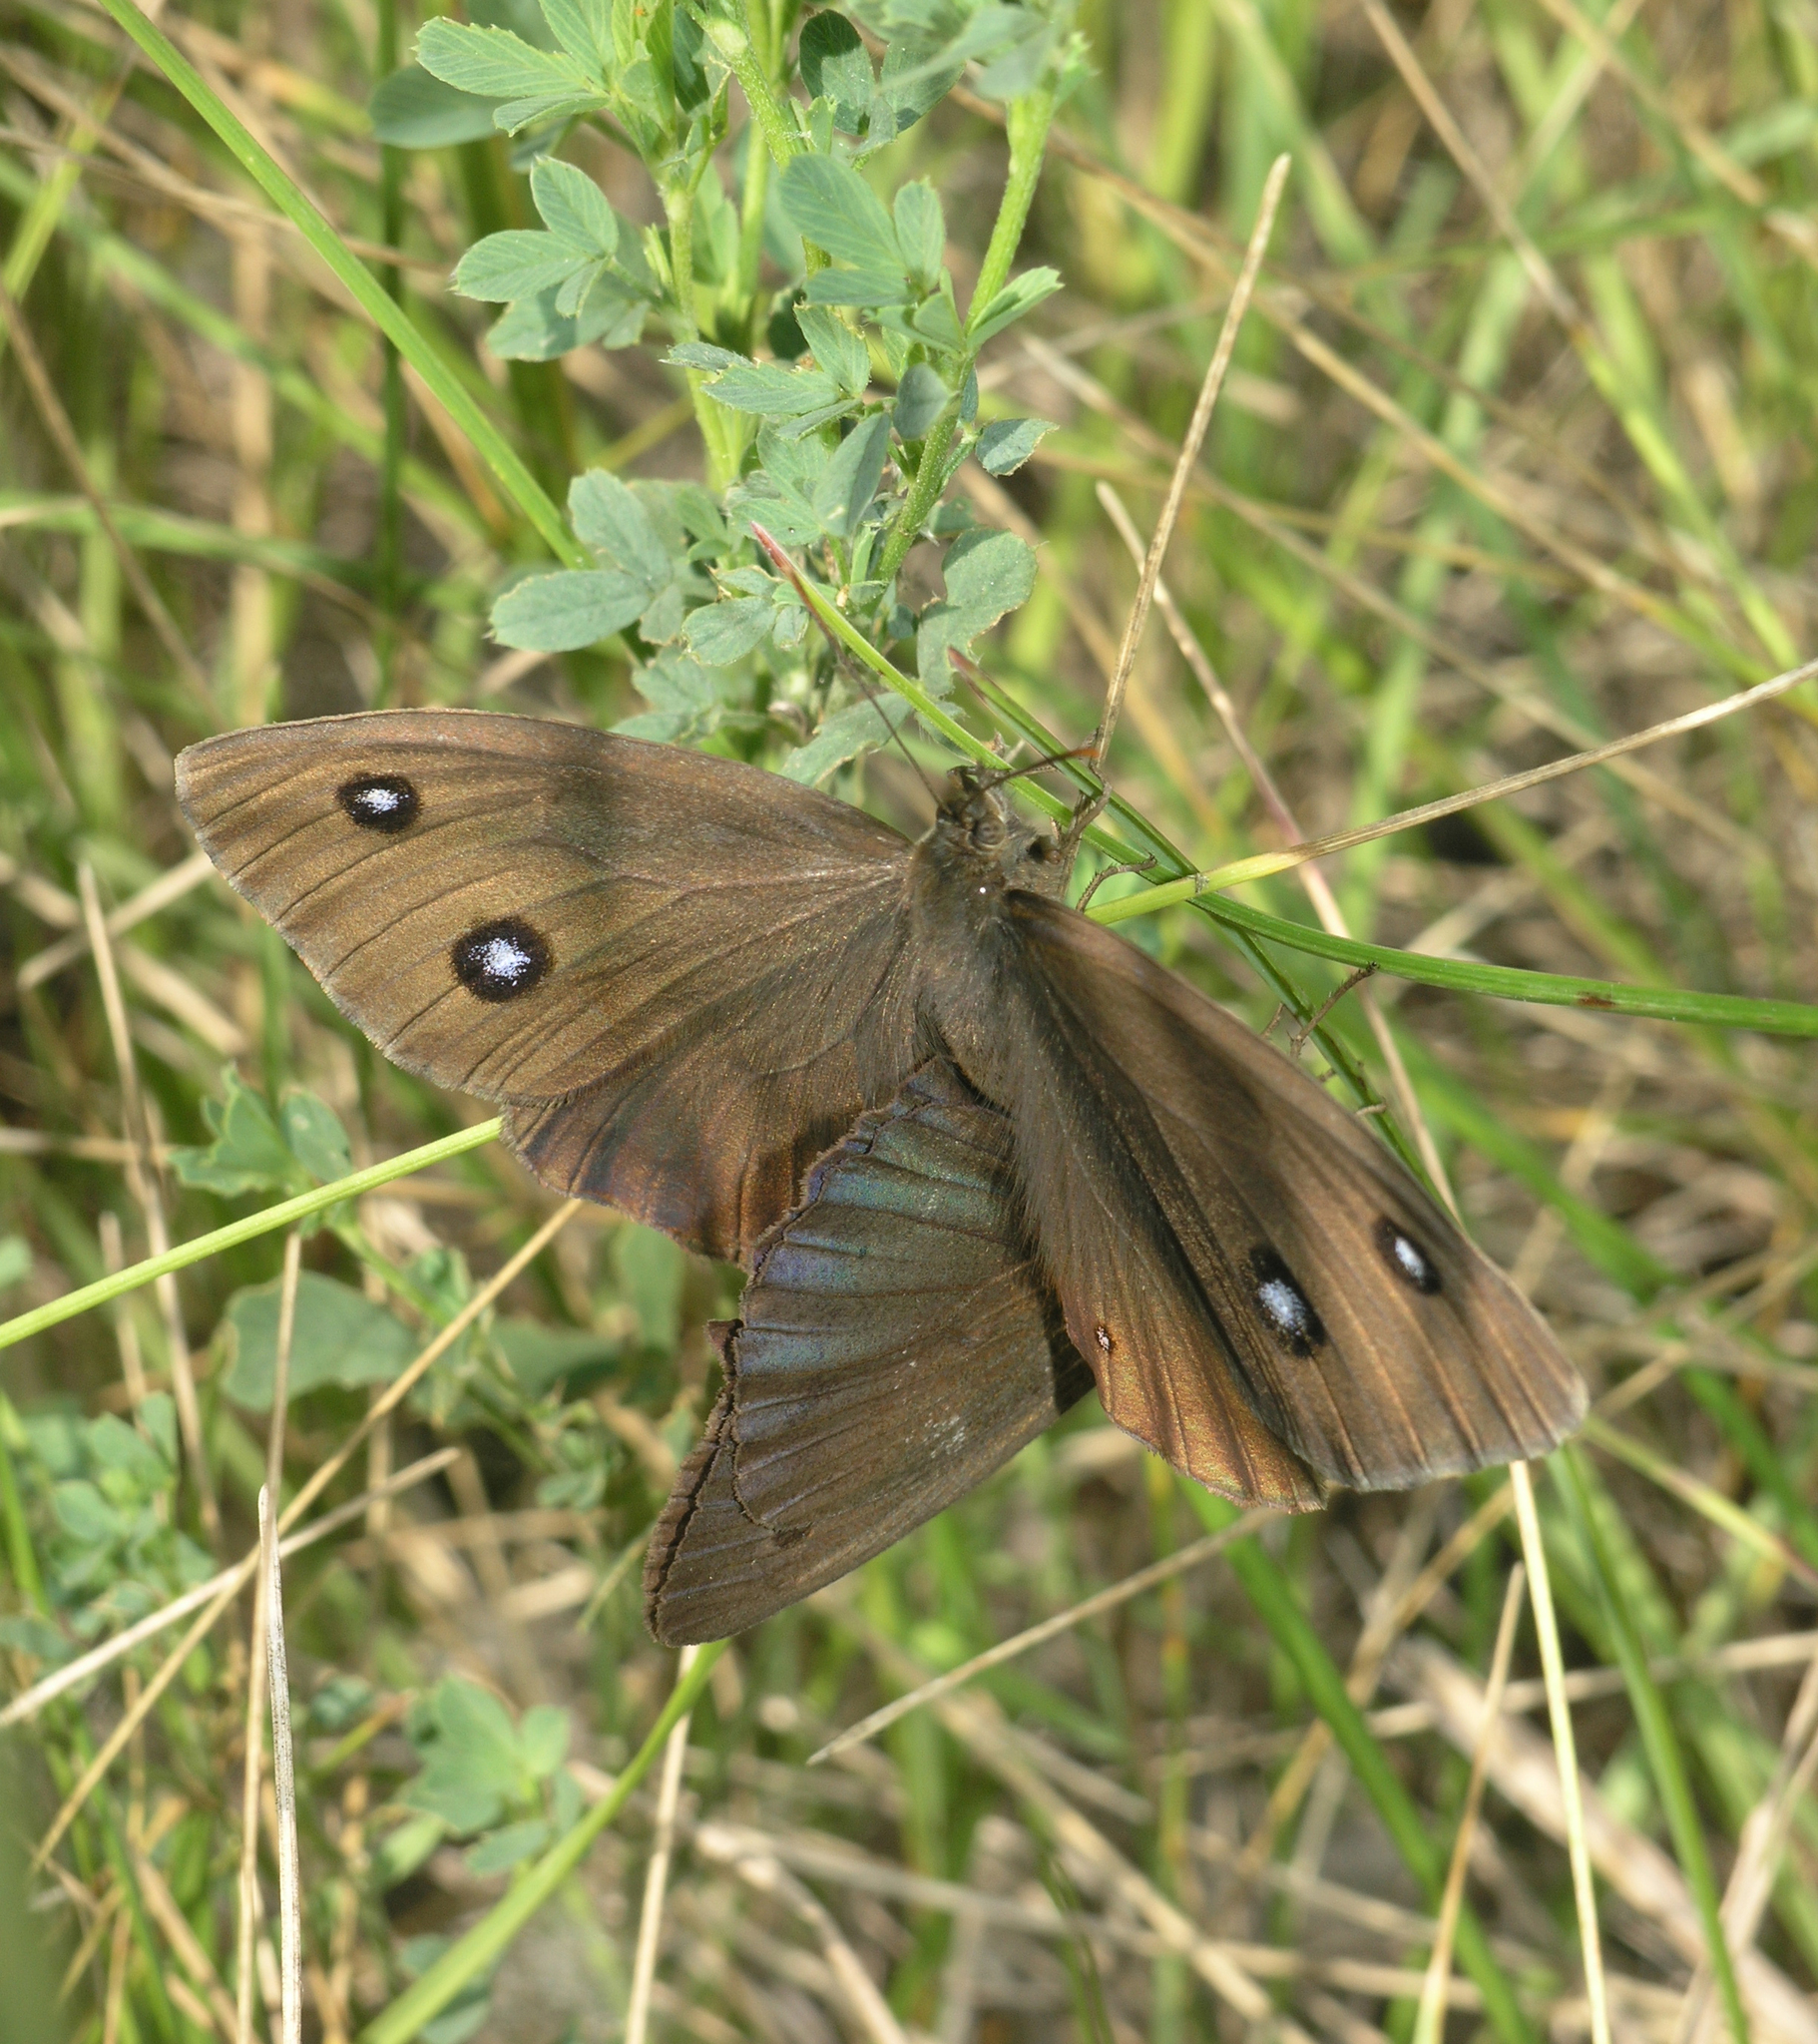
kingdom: Animalia
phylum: Arthropoda
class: Insecta
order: Lepidoptera
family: Nymphalidae
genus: Minois
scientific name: Minois dryas
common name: Dryad
